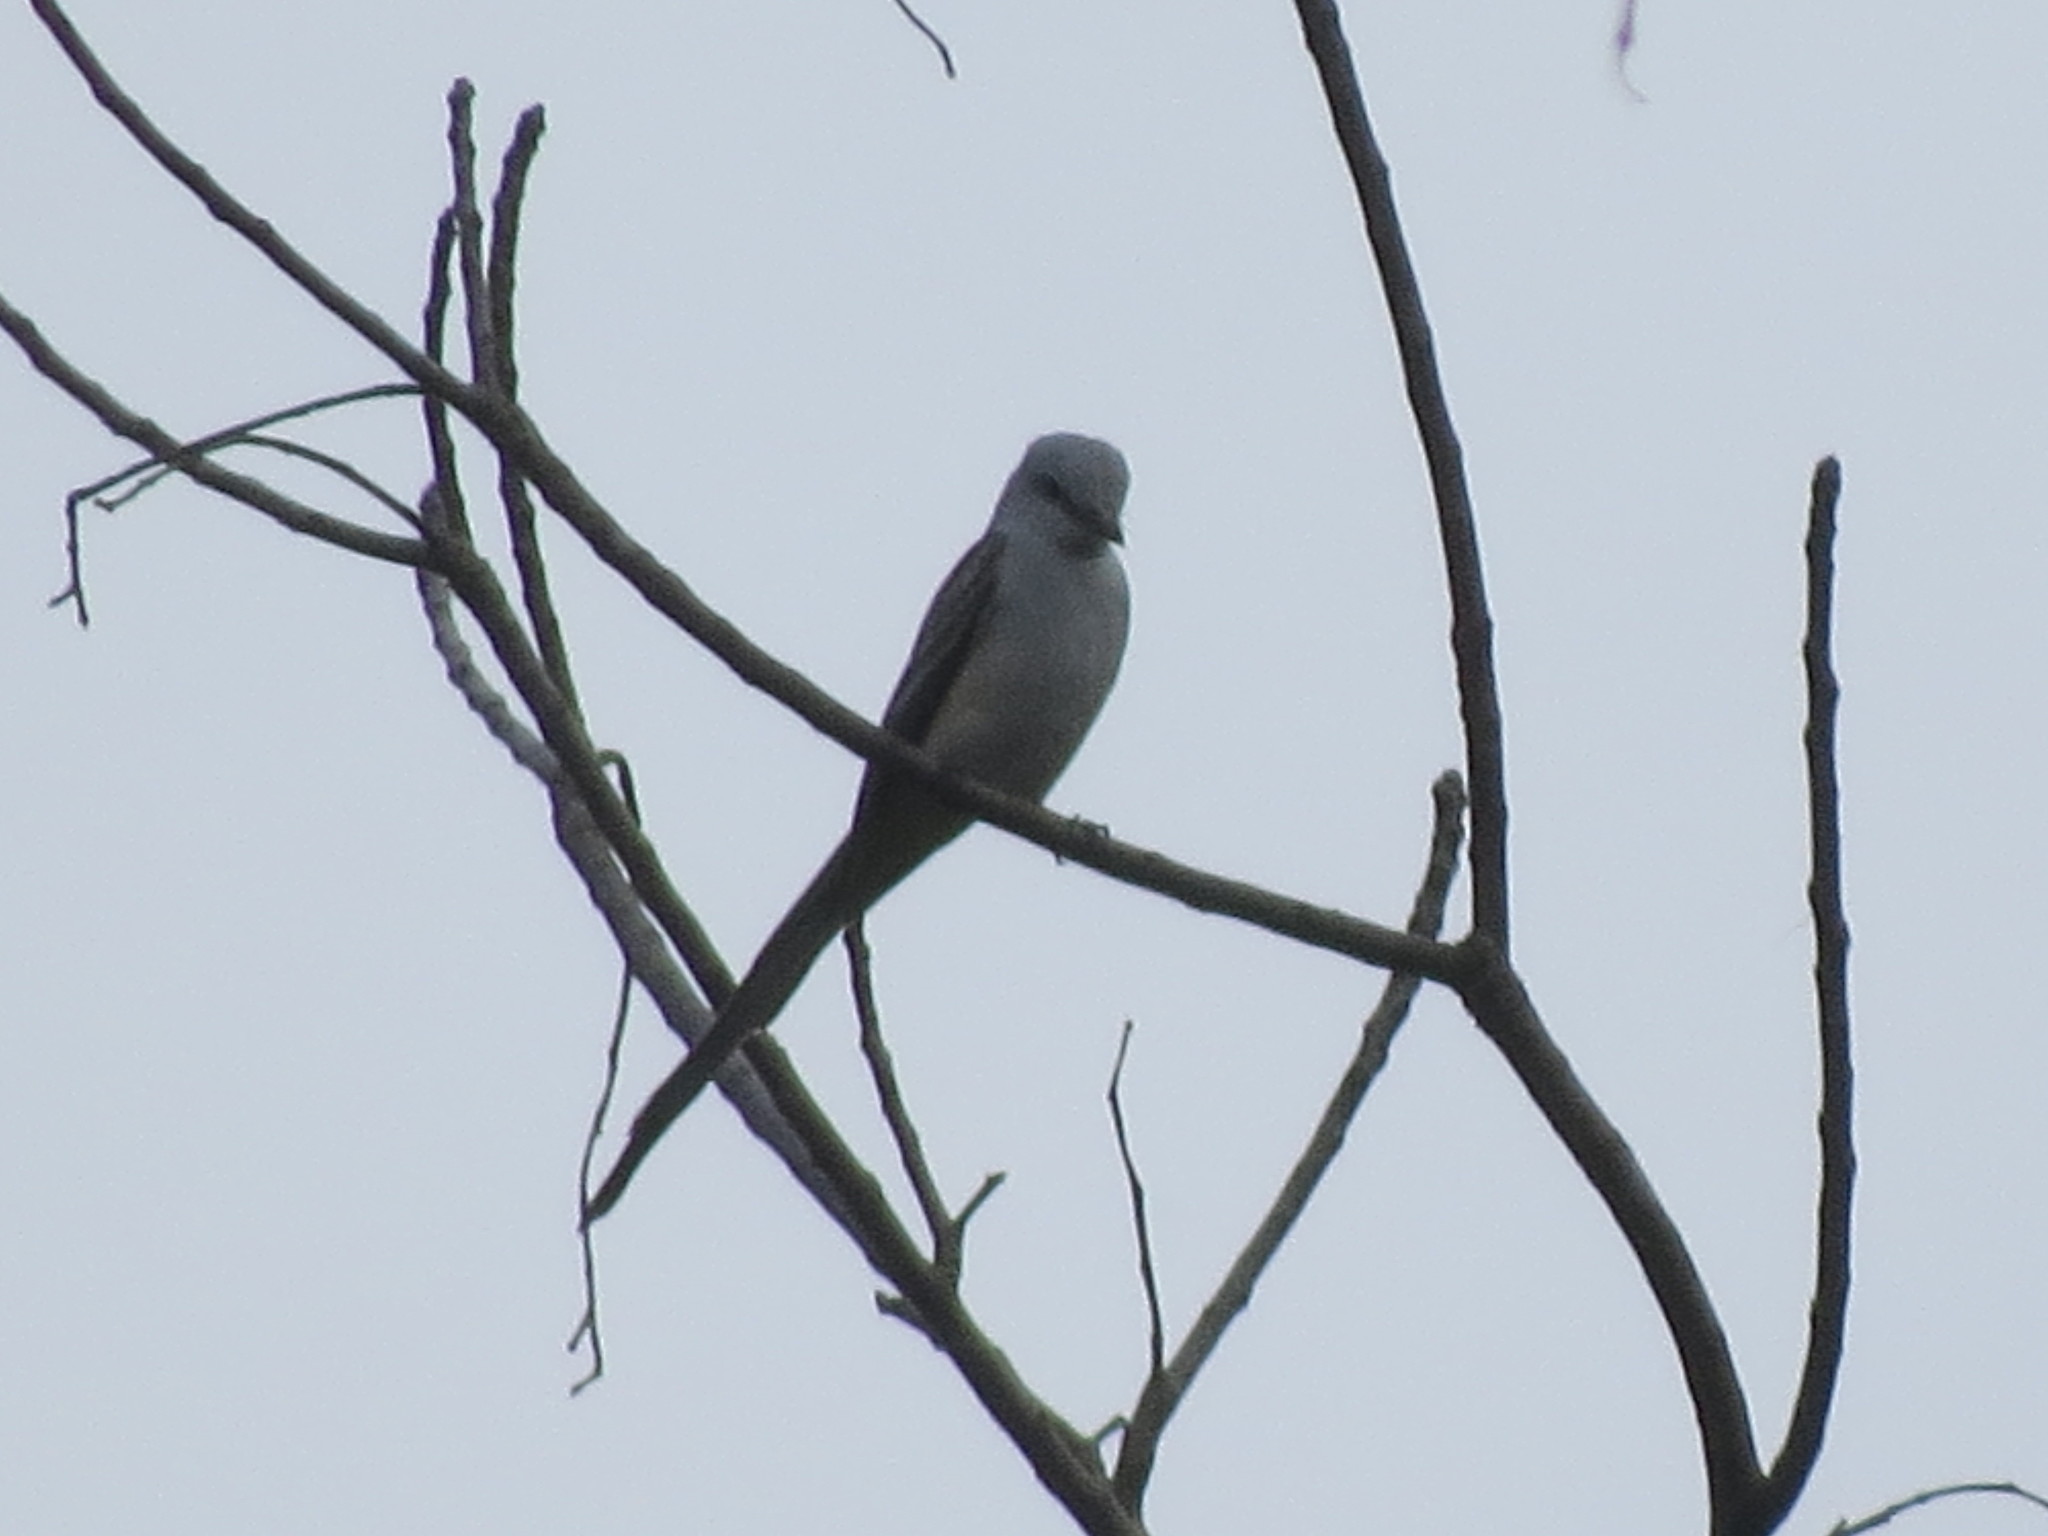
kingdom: Animalia
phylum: Chordata
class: Aves
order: Passeriformes
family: Tyrannidae
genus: Tyrannus
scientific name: Tyrannus forficatus
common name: Scissor-tailed flycatcher
